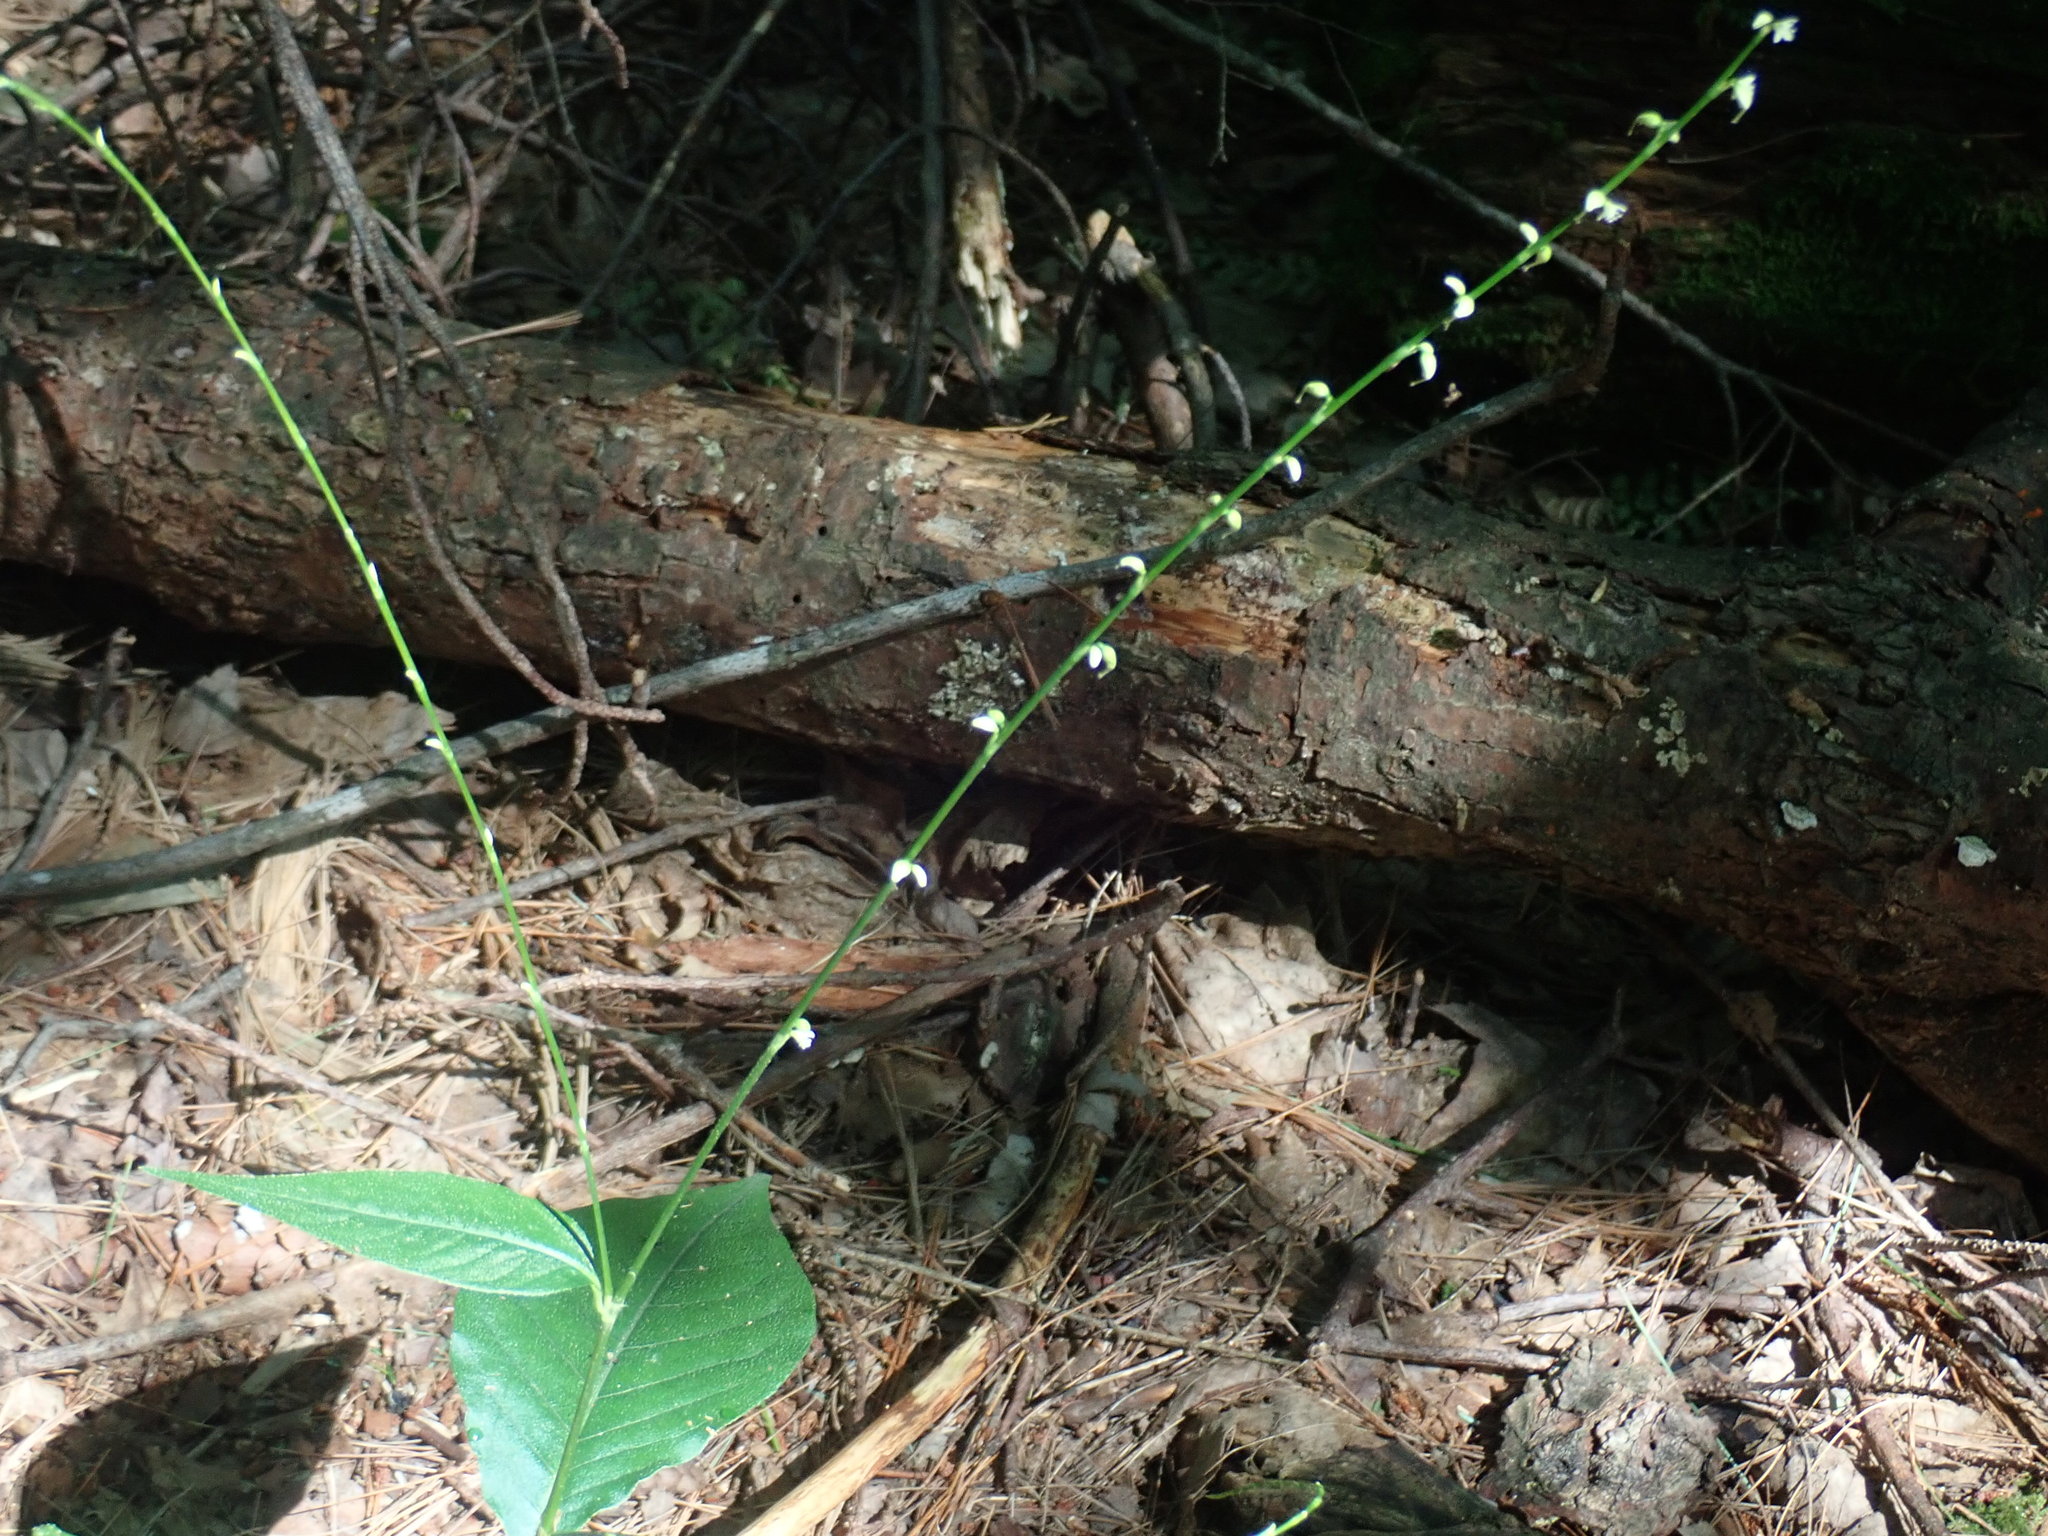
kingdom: Plantae
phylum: Tracheophyta
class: Magnoliopsida
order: Caryophyllales
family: Polygonaceae
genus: Persicaria
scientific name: Persicaria virginiana
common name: Jumpseed
